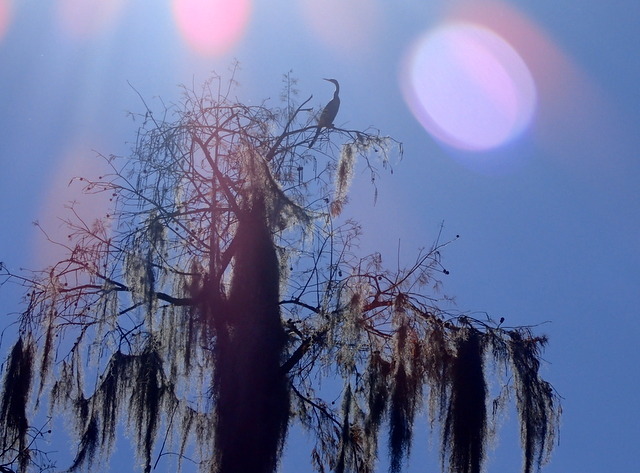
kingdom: Animalia
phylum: Chordata
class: Aves
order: Suliformes
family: Anhingidae
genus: Anhinga
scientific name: Anhinga anhinga
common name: Anhinga
